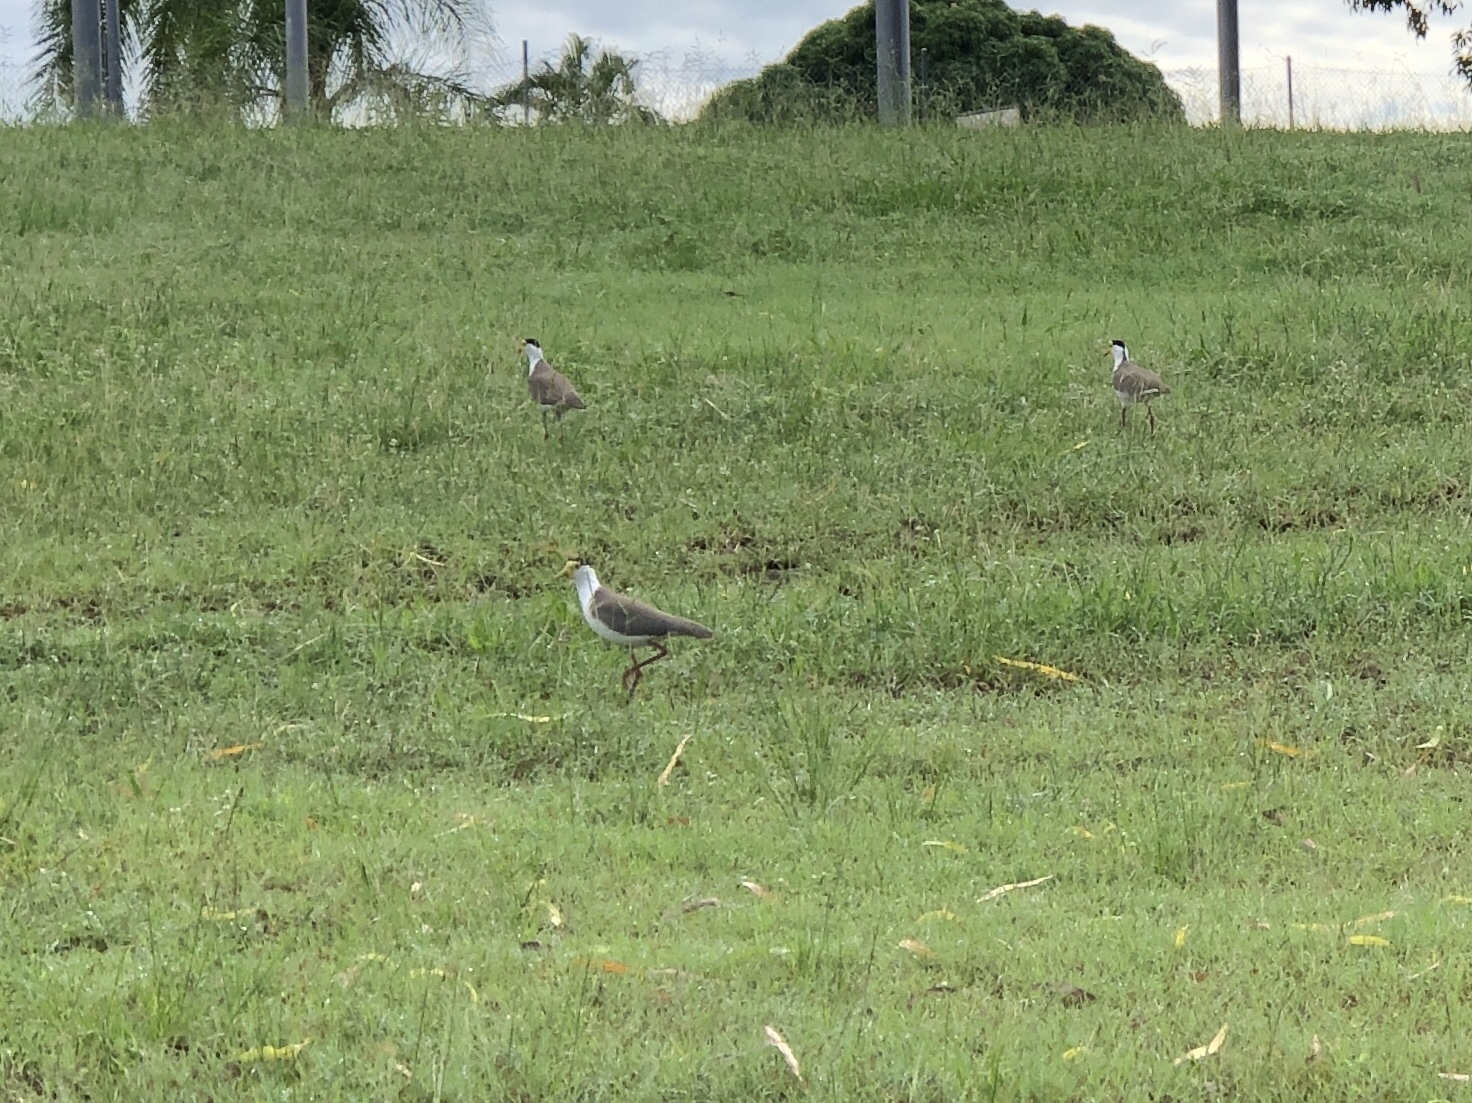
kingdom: Animalia
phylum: Chordata
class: Aves
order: Charadriiformes
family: Charadriidae
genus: Vanellus
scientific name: Vanellus miles
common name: Masked lapwing
